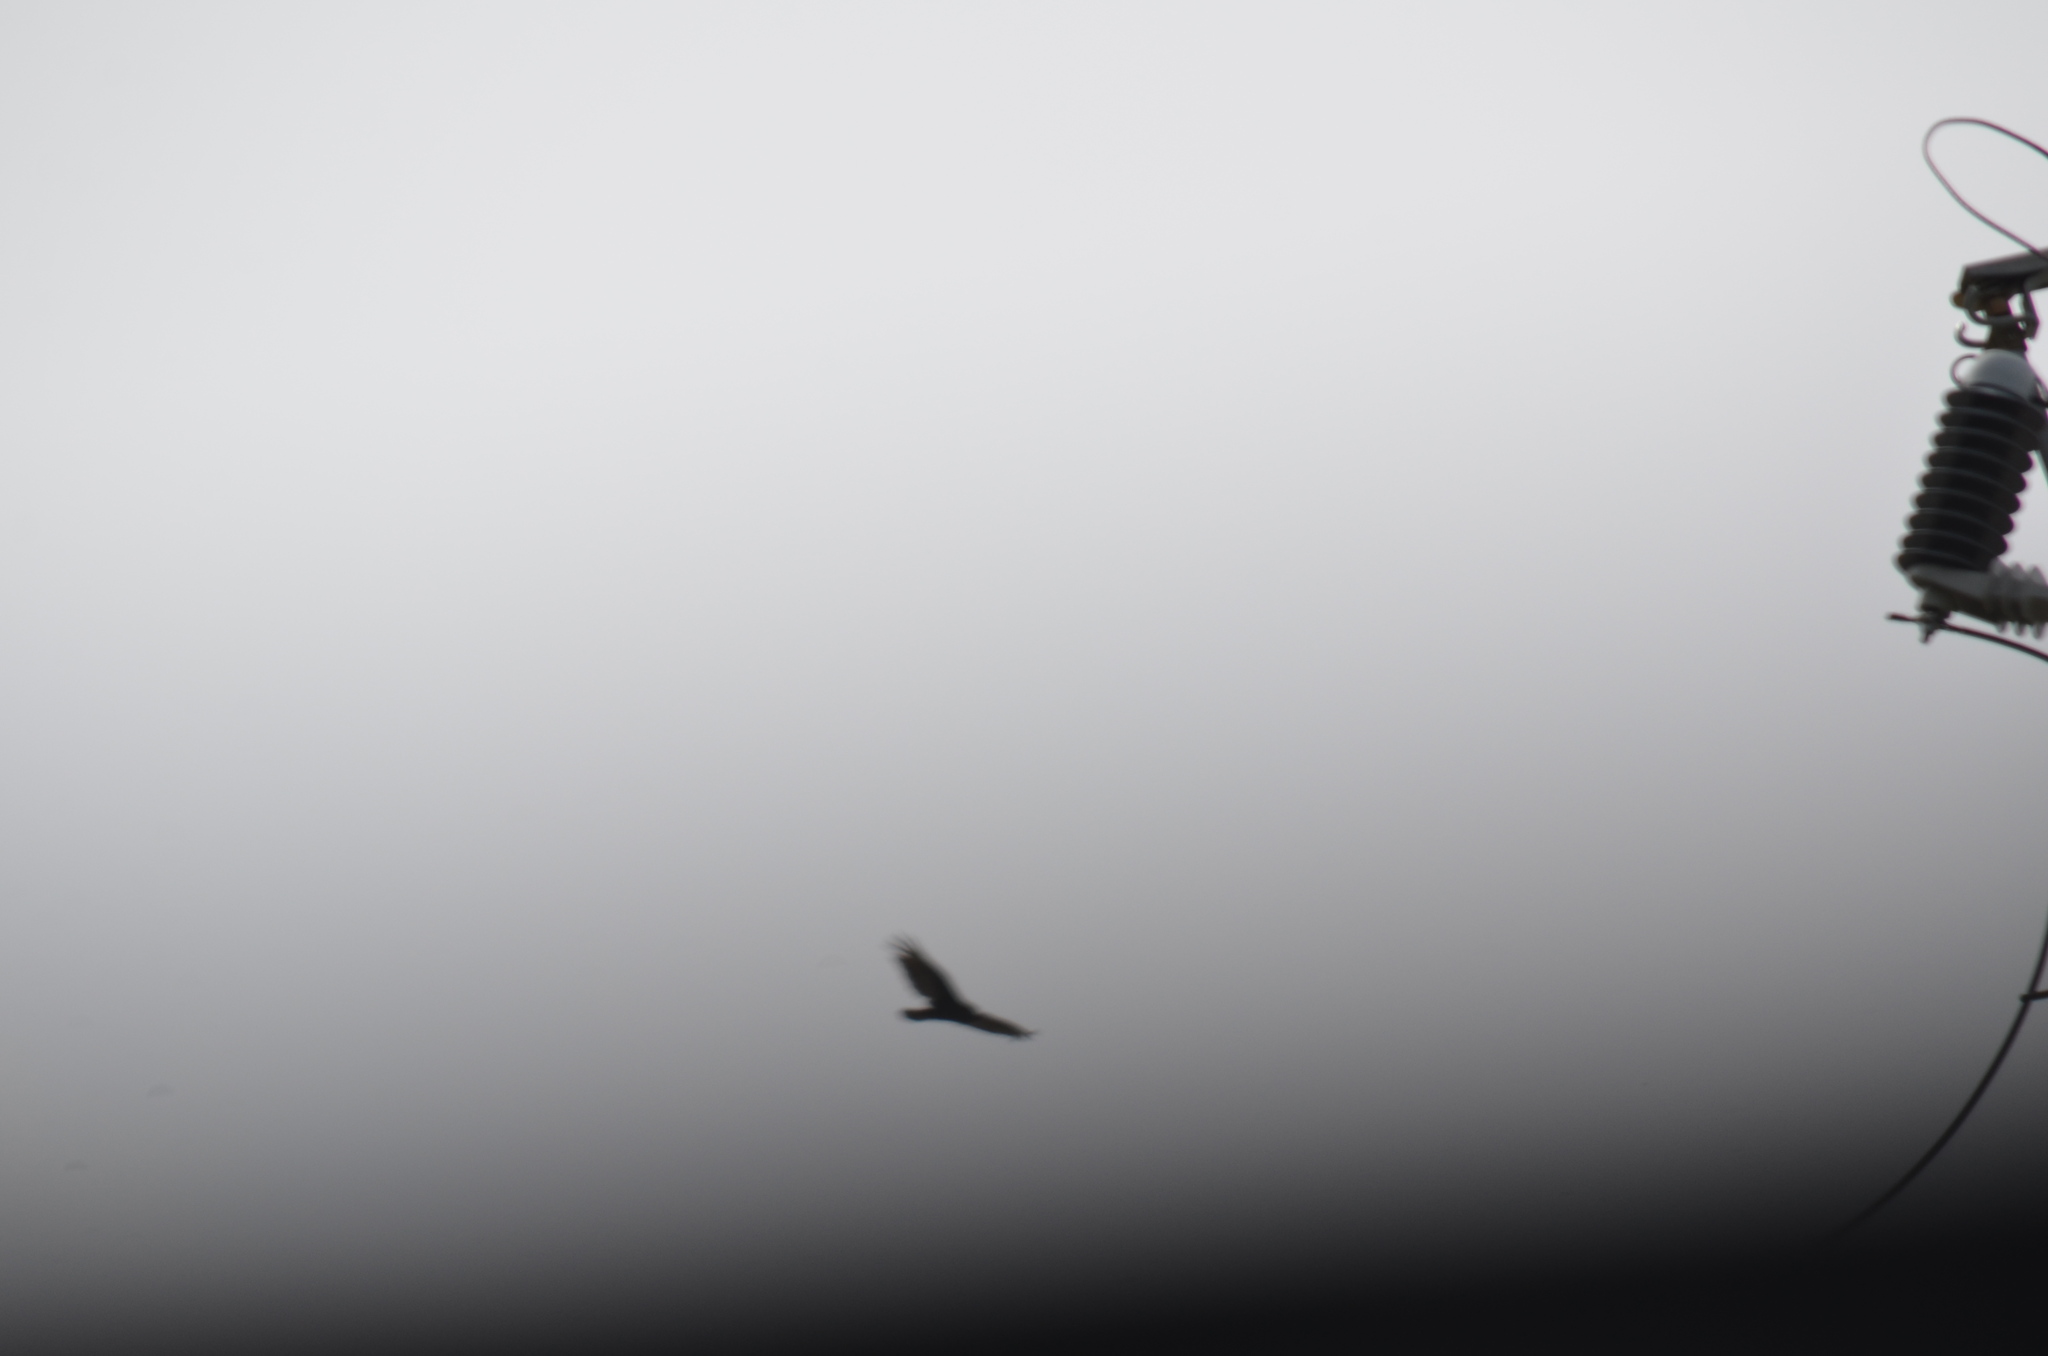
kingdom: Animalia
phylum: Chordata
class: Aves
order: Accipitriformes
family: Cathartidae
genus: Cathartes
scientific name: Cathartes aura
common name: Turkey vulture
